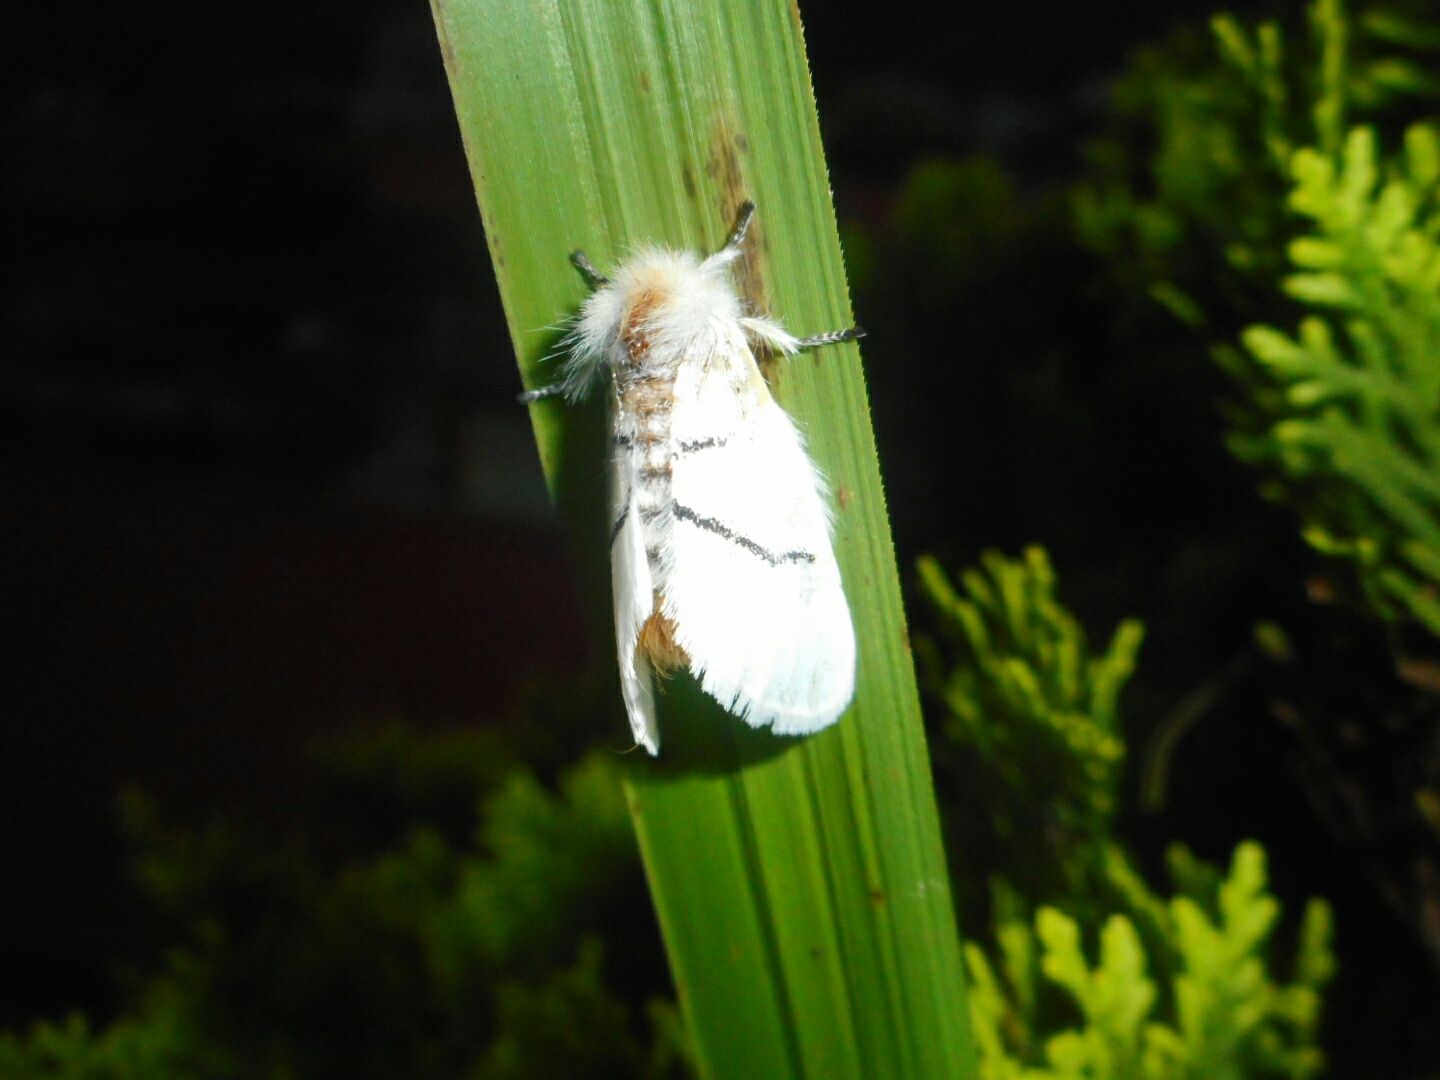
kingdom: Animalia
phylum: Arthropoda
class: Insecta
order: Lepidoptera
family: Notodontidae
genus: Gazalina
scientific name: Gazalina transversa
